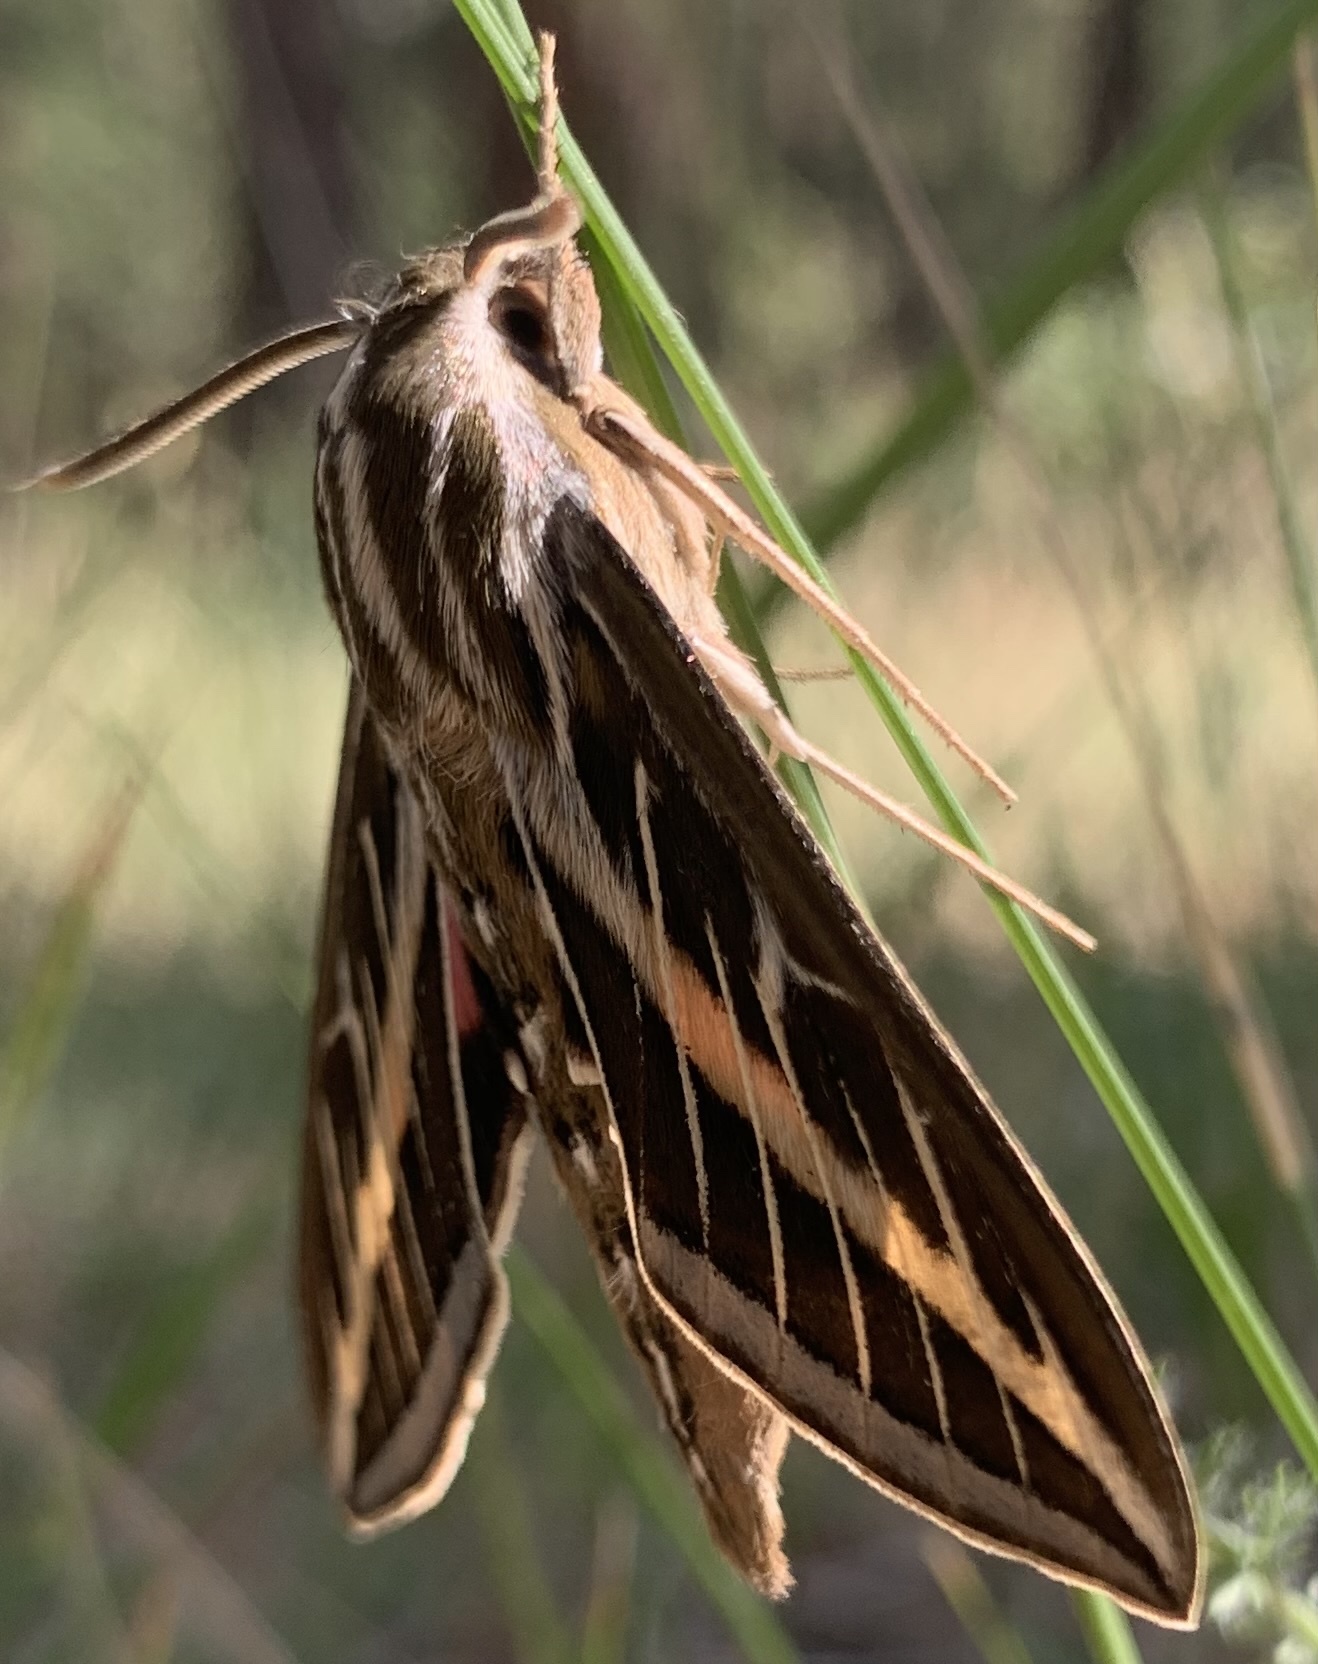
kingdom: Animalia
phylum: Arthropoda
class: Insecta
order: Lepidoptera
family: Sphingidae
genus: Hyles
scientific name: Hyles lineata
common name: White-lined sphinx
